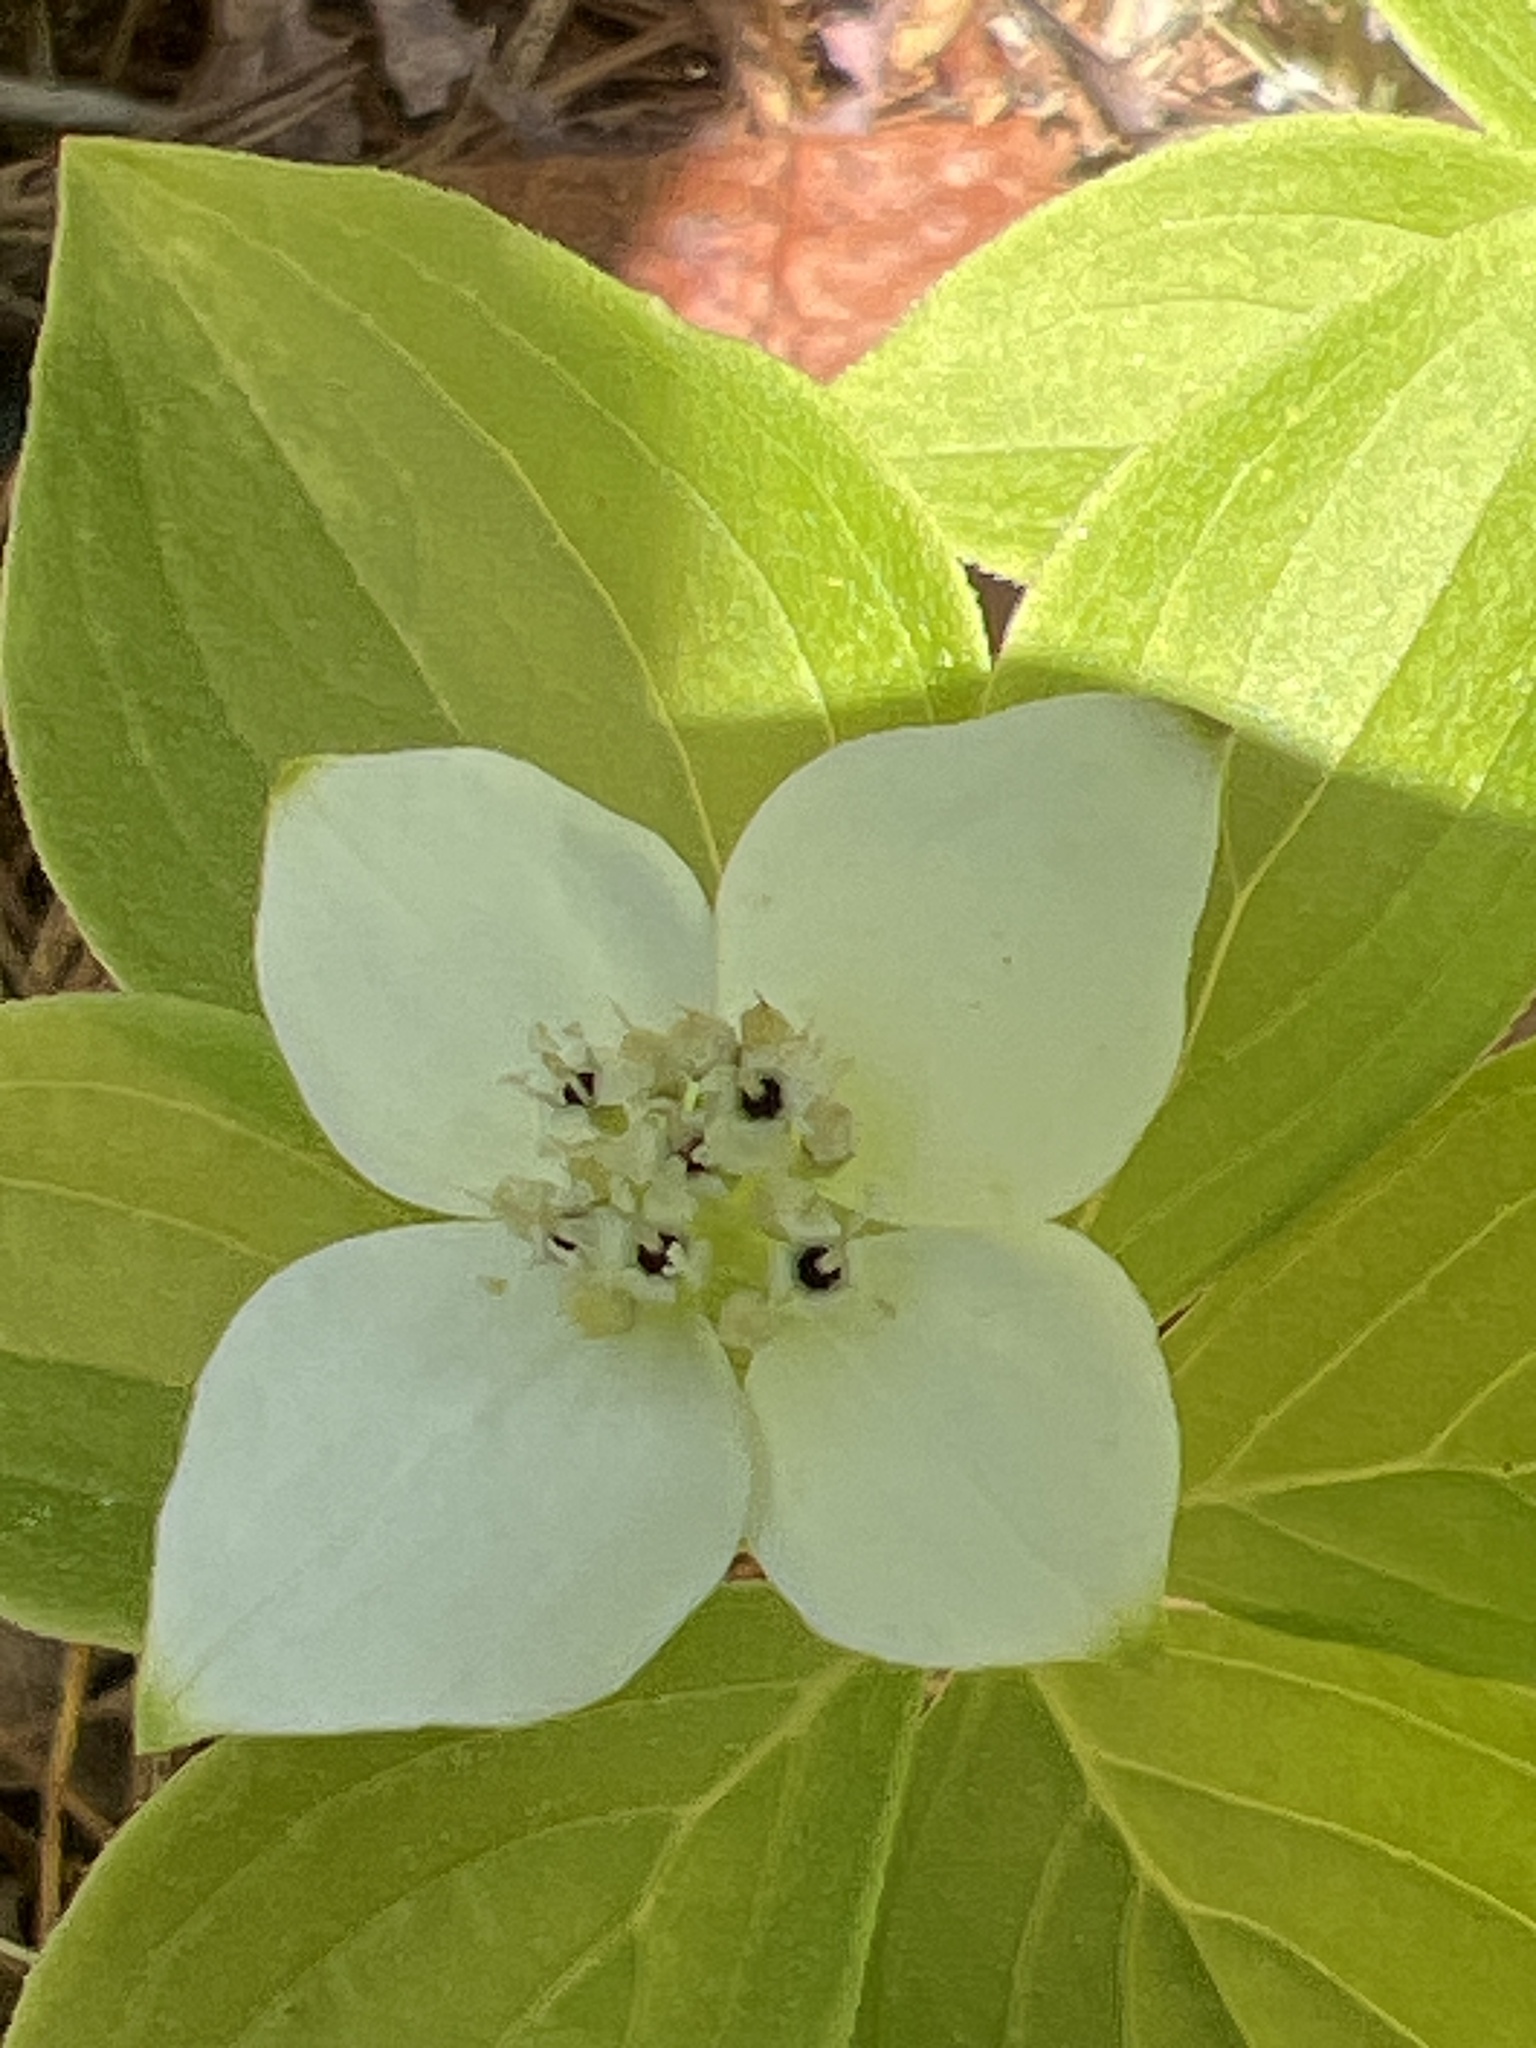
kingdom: Plantae
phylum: Tracheophyta
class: Magnoliopsida
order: Cornales
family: Cornaceae
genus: Cornus
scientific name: Cornus canadensis
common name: Creeping dogwood
